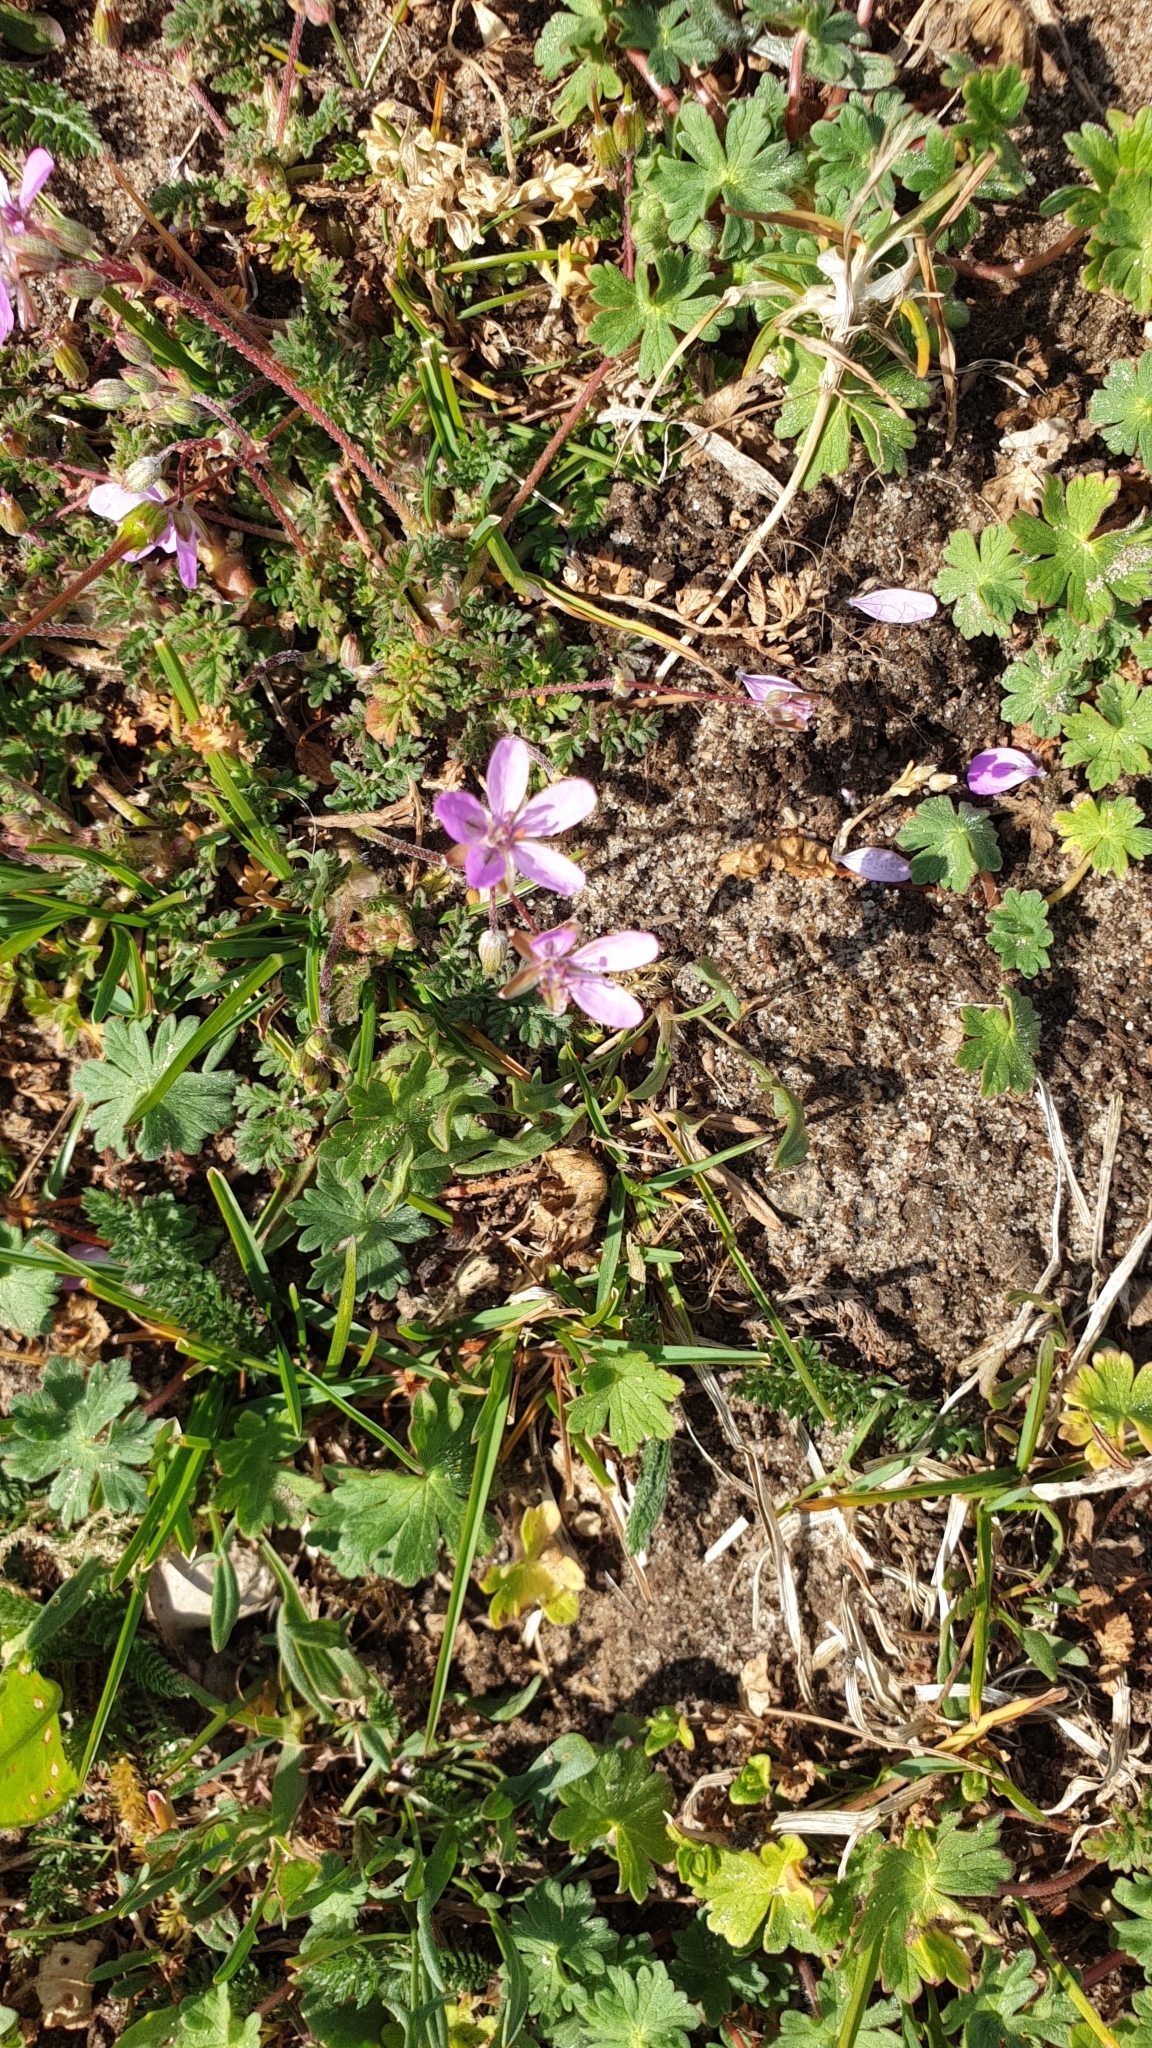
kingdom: Plantae
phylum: Tracheophyta
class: Magnoliopsida
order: Geraniales
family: Geraniaceae
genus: Erodium
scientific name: Erodium cicutarium
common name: Common stork's-bill
